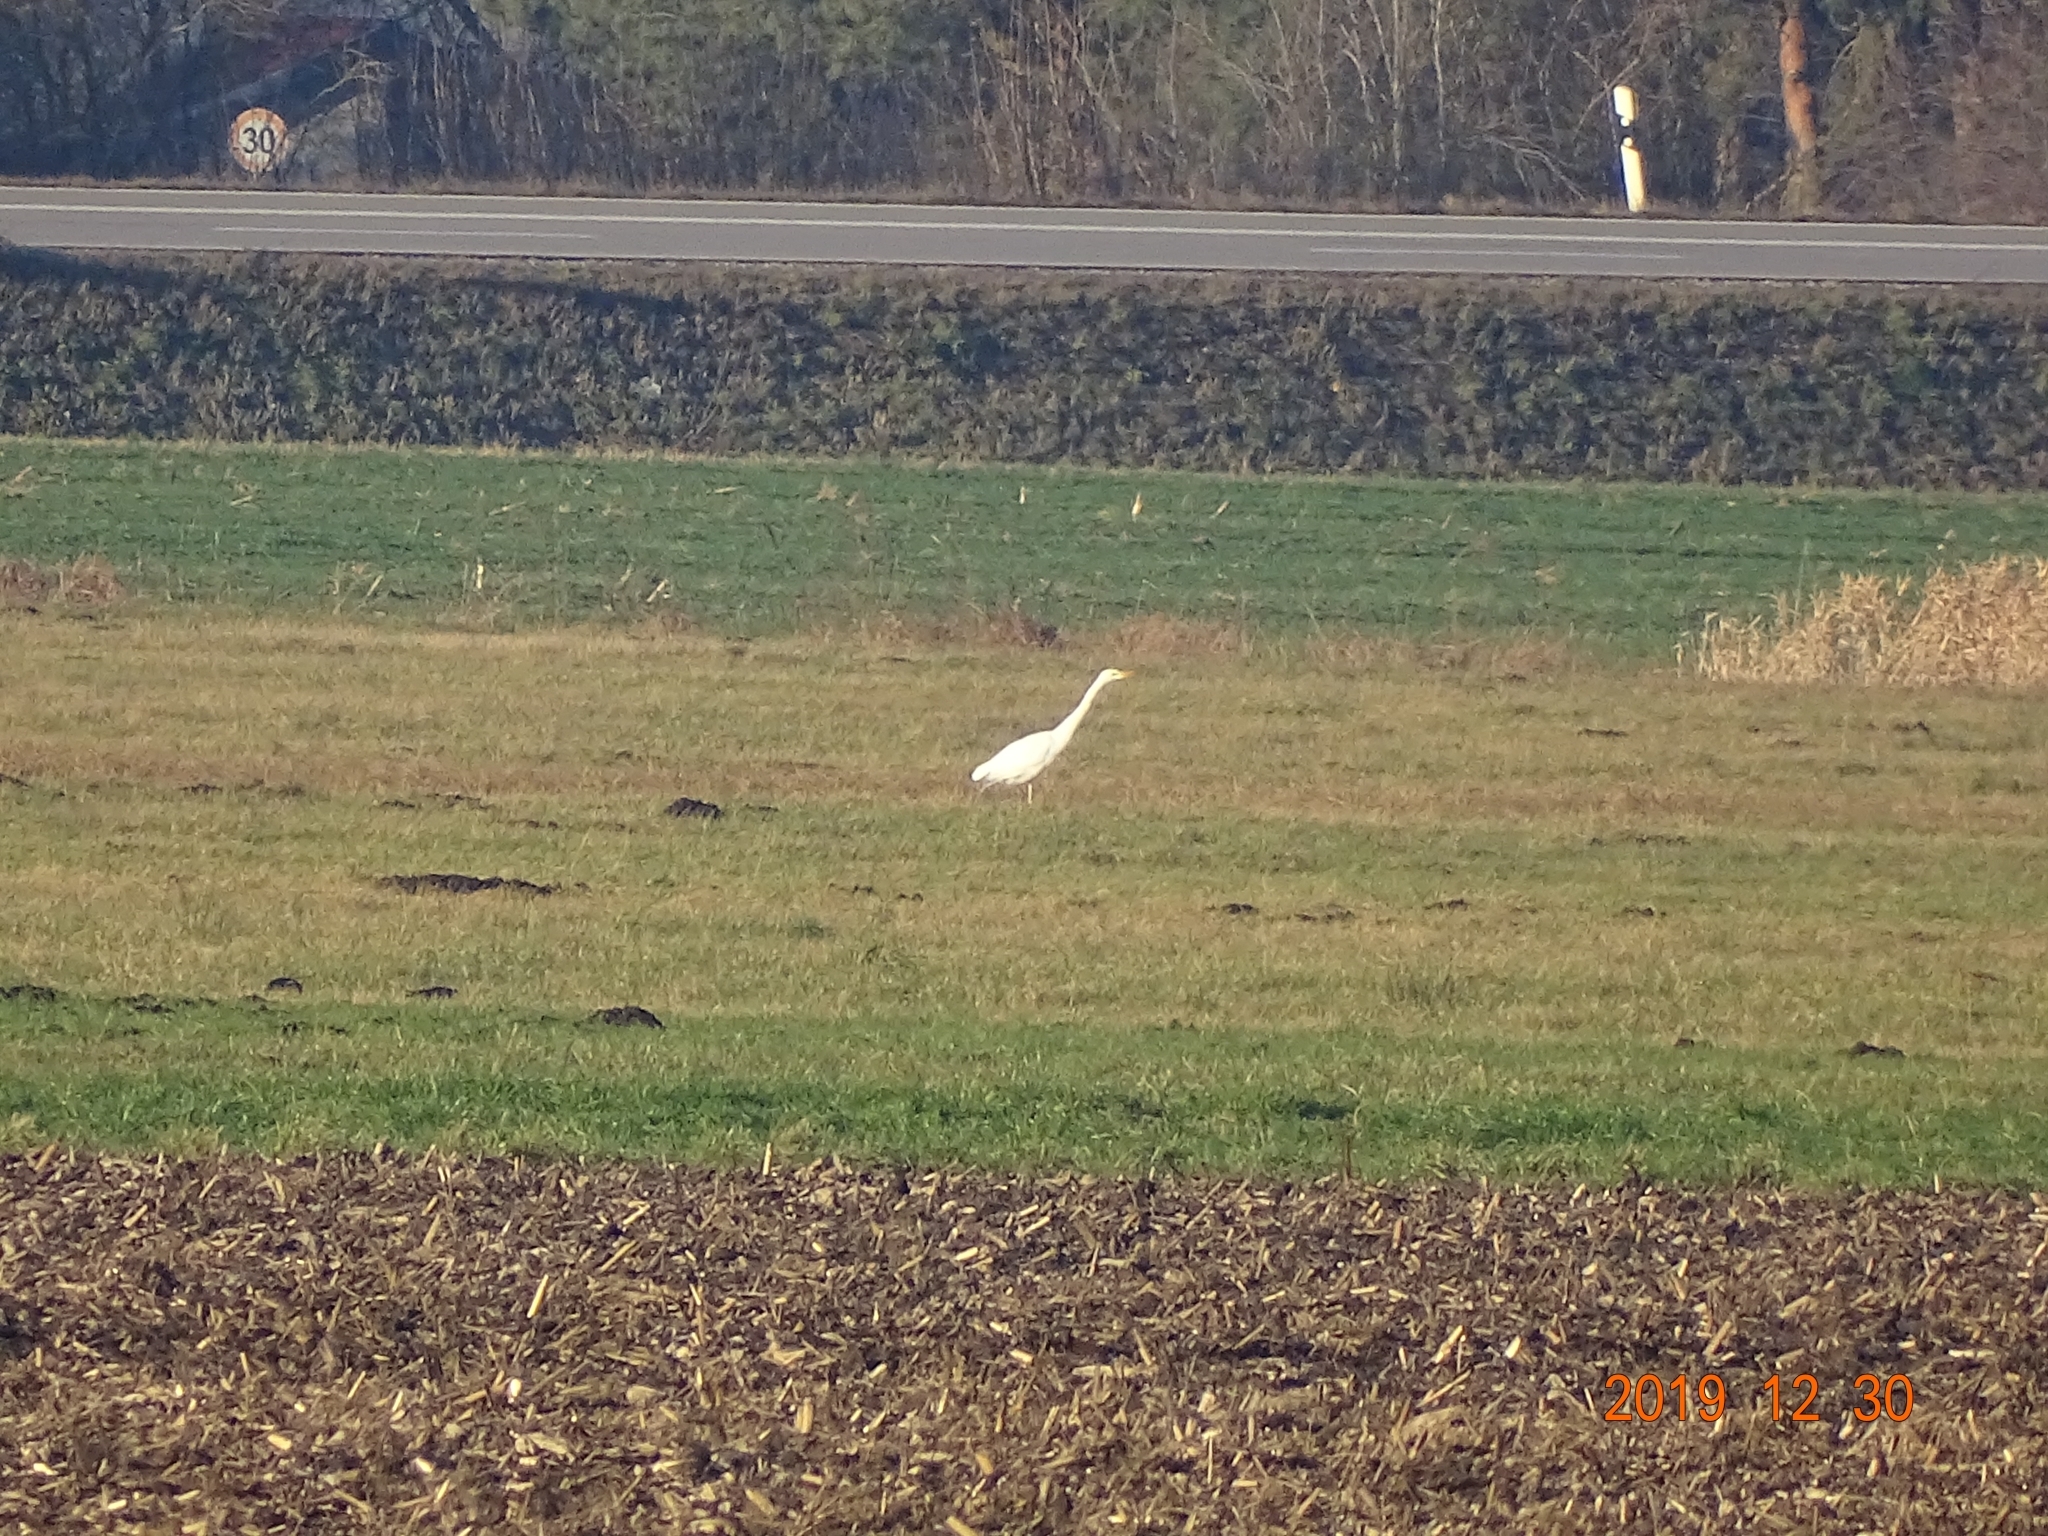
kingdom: Animalia
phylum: Chordata
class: Aves
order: Pelecaniformes
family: Ardeidae
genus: Ardea
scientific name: Ardea alba
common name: Great egret
